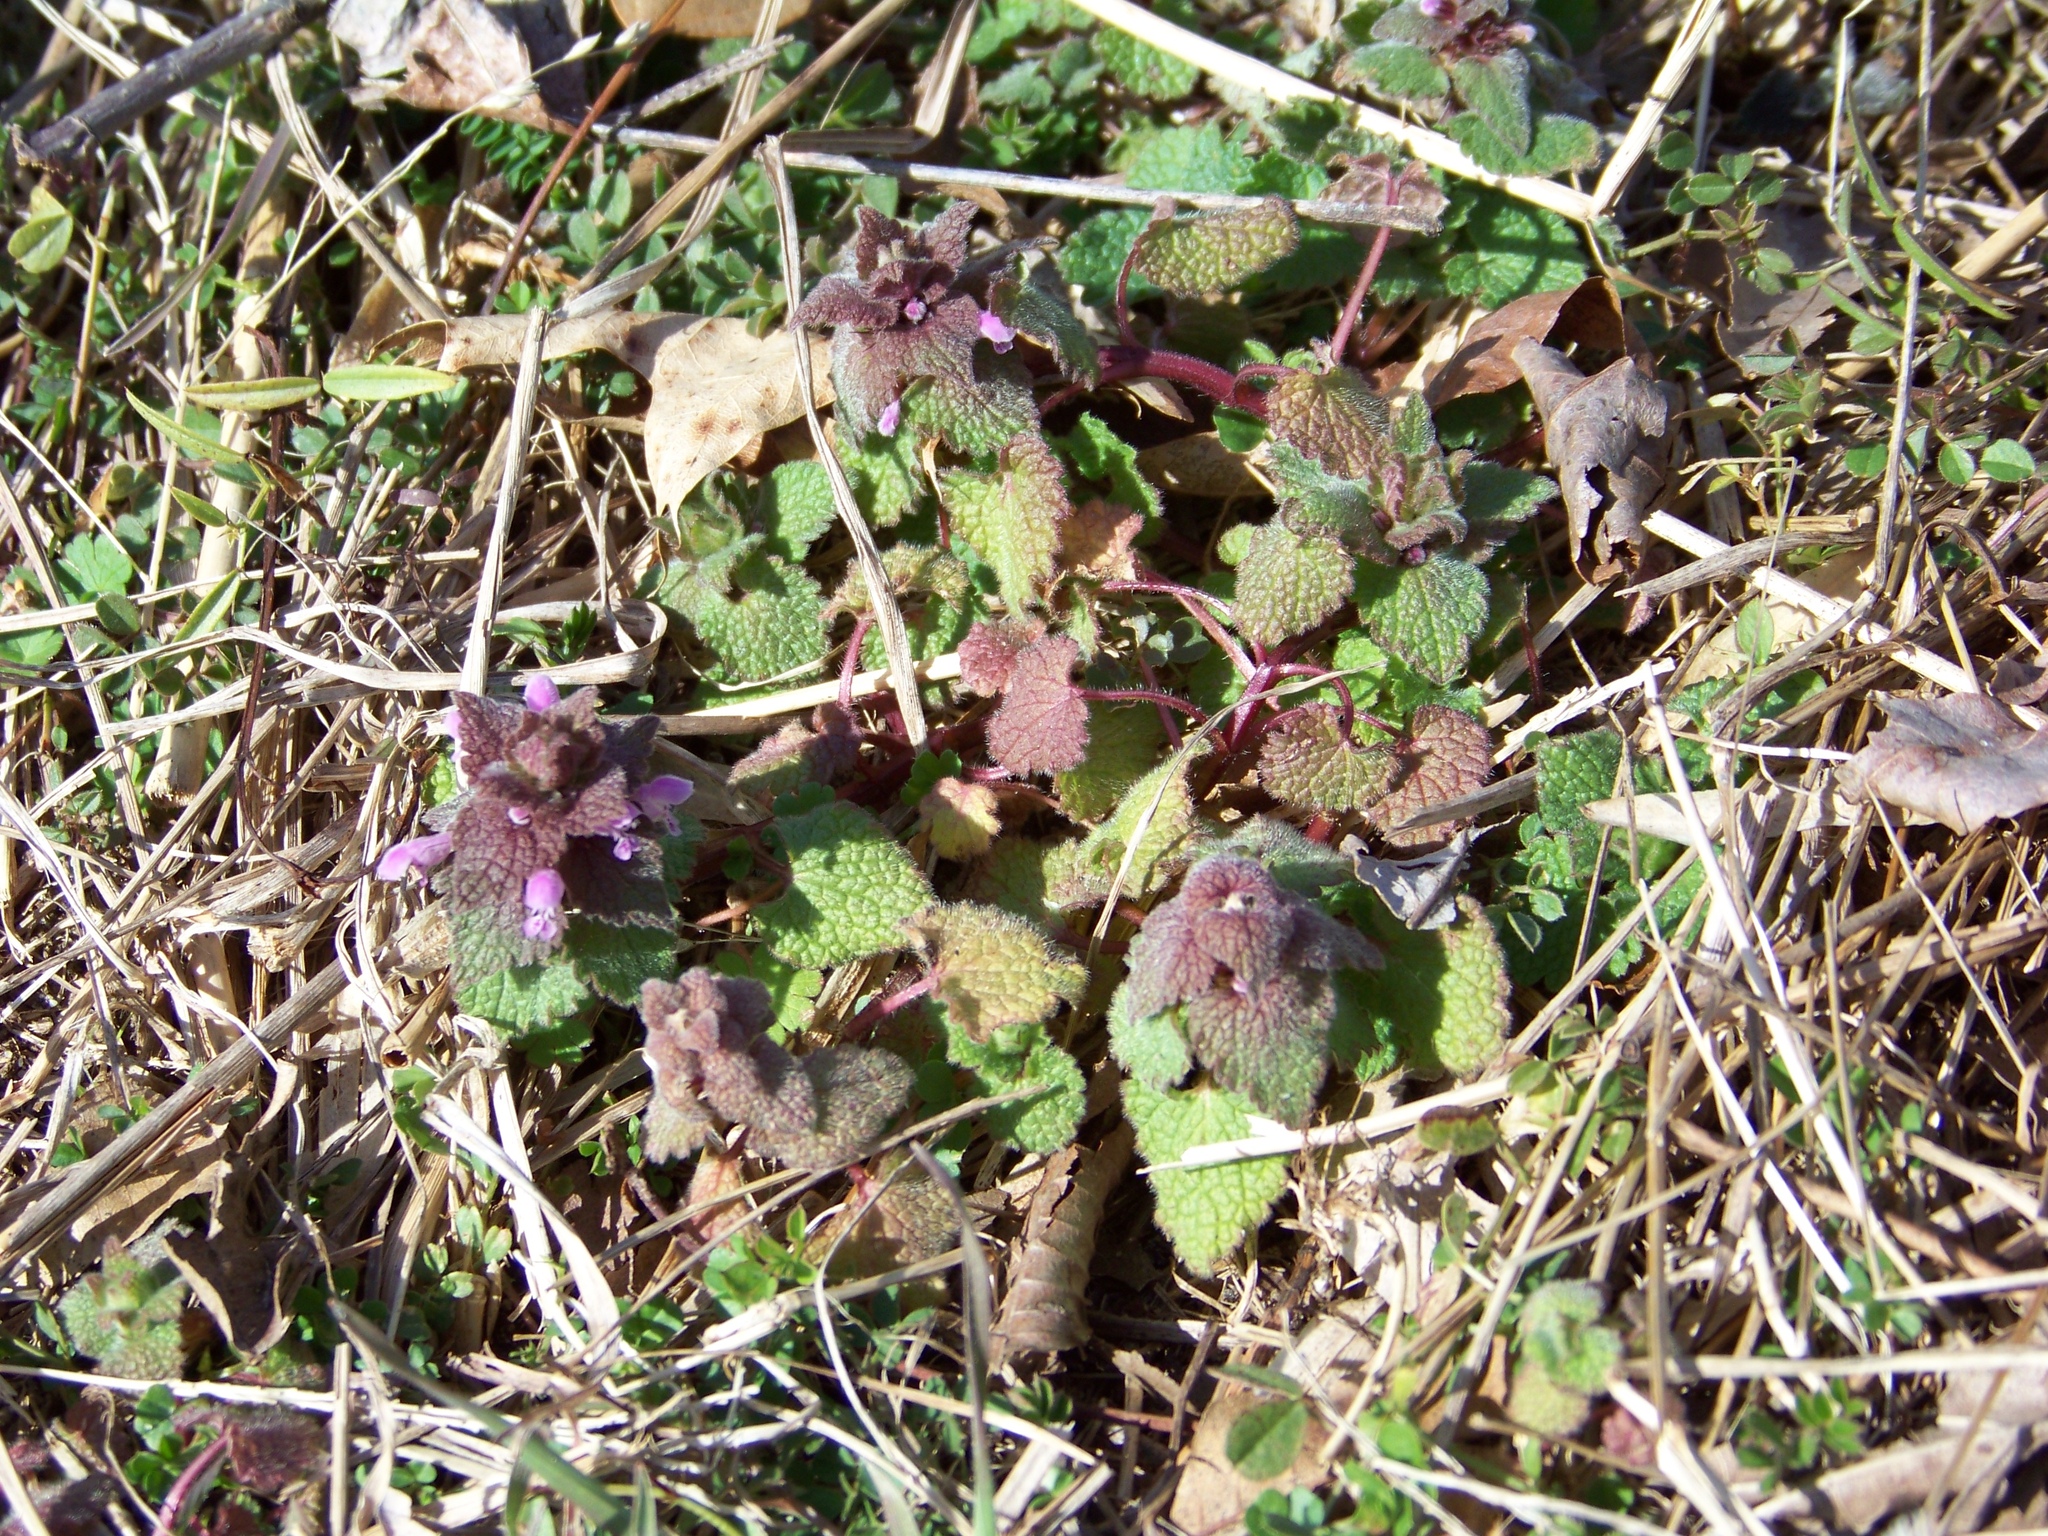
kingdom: Plantae
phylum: Tracheophyta
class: Magnoliopsida
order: Lamiales
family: Lamiaceae
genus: Lamium
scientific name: Lamium purpureum
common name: Red dead-nettle
